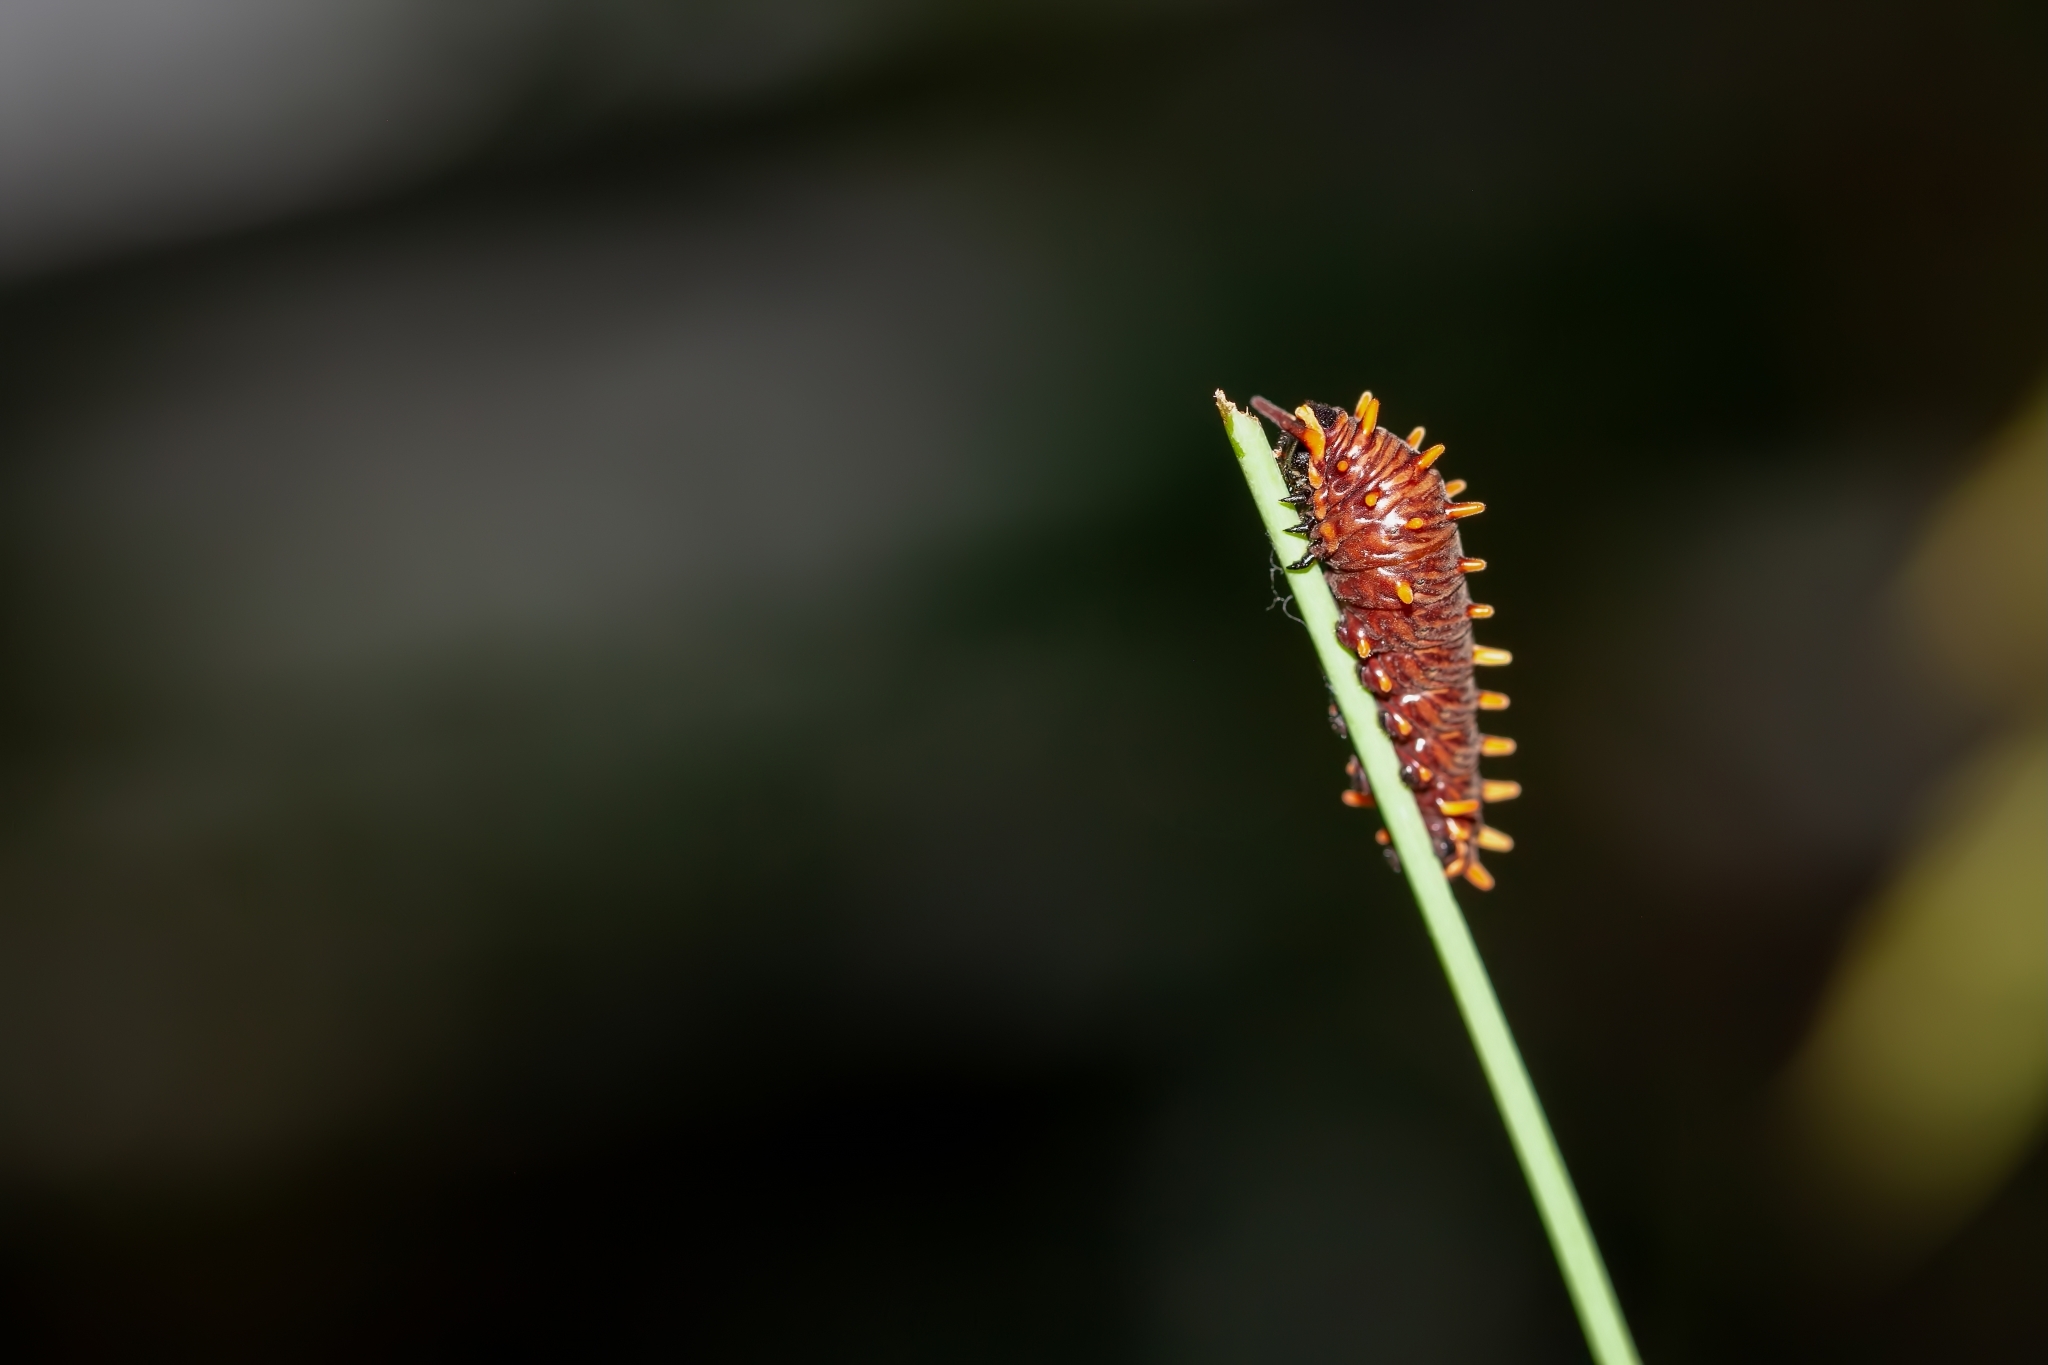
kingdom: Animalia
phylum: Arthropoda
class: Insecta
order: Lepidoptera
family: Papilionidae
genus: Battus
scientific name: Battus polydamas
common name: Polydamas swallowtail
